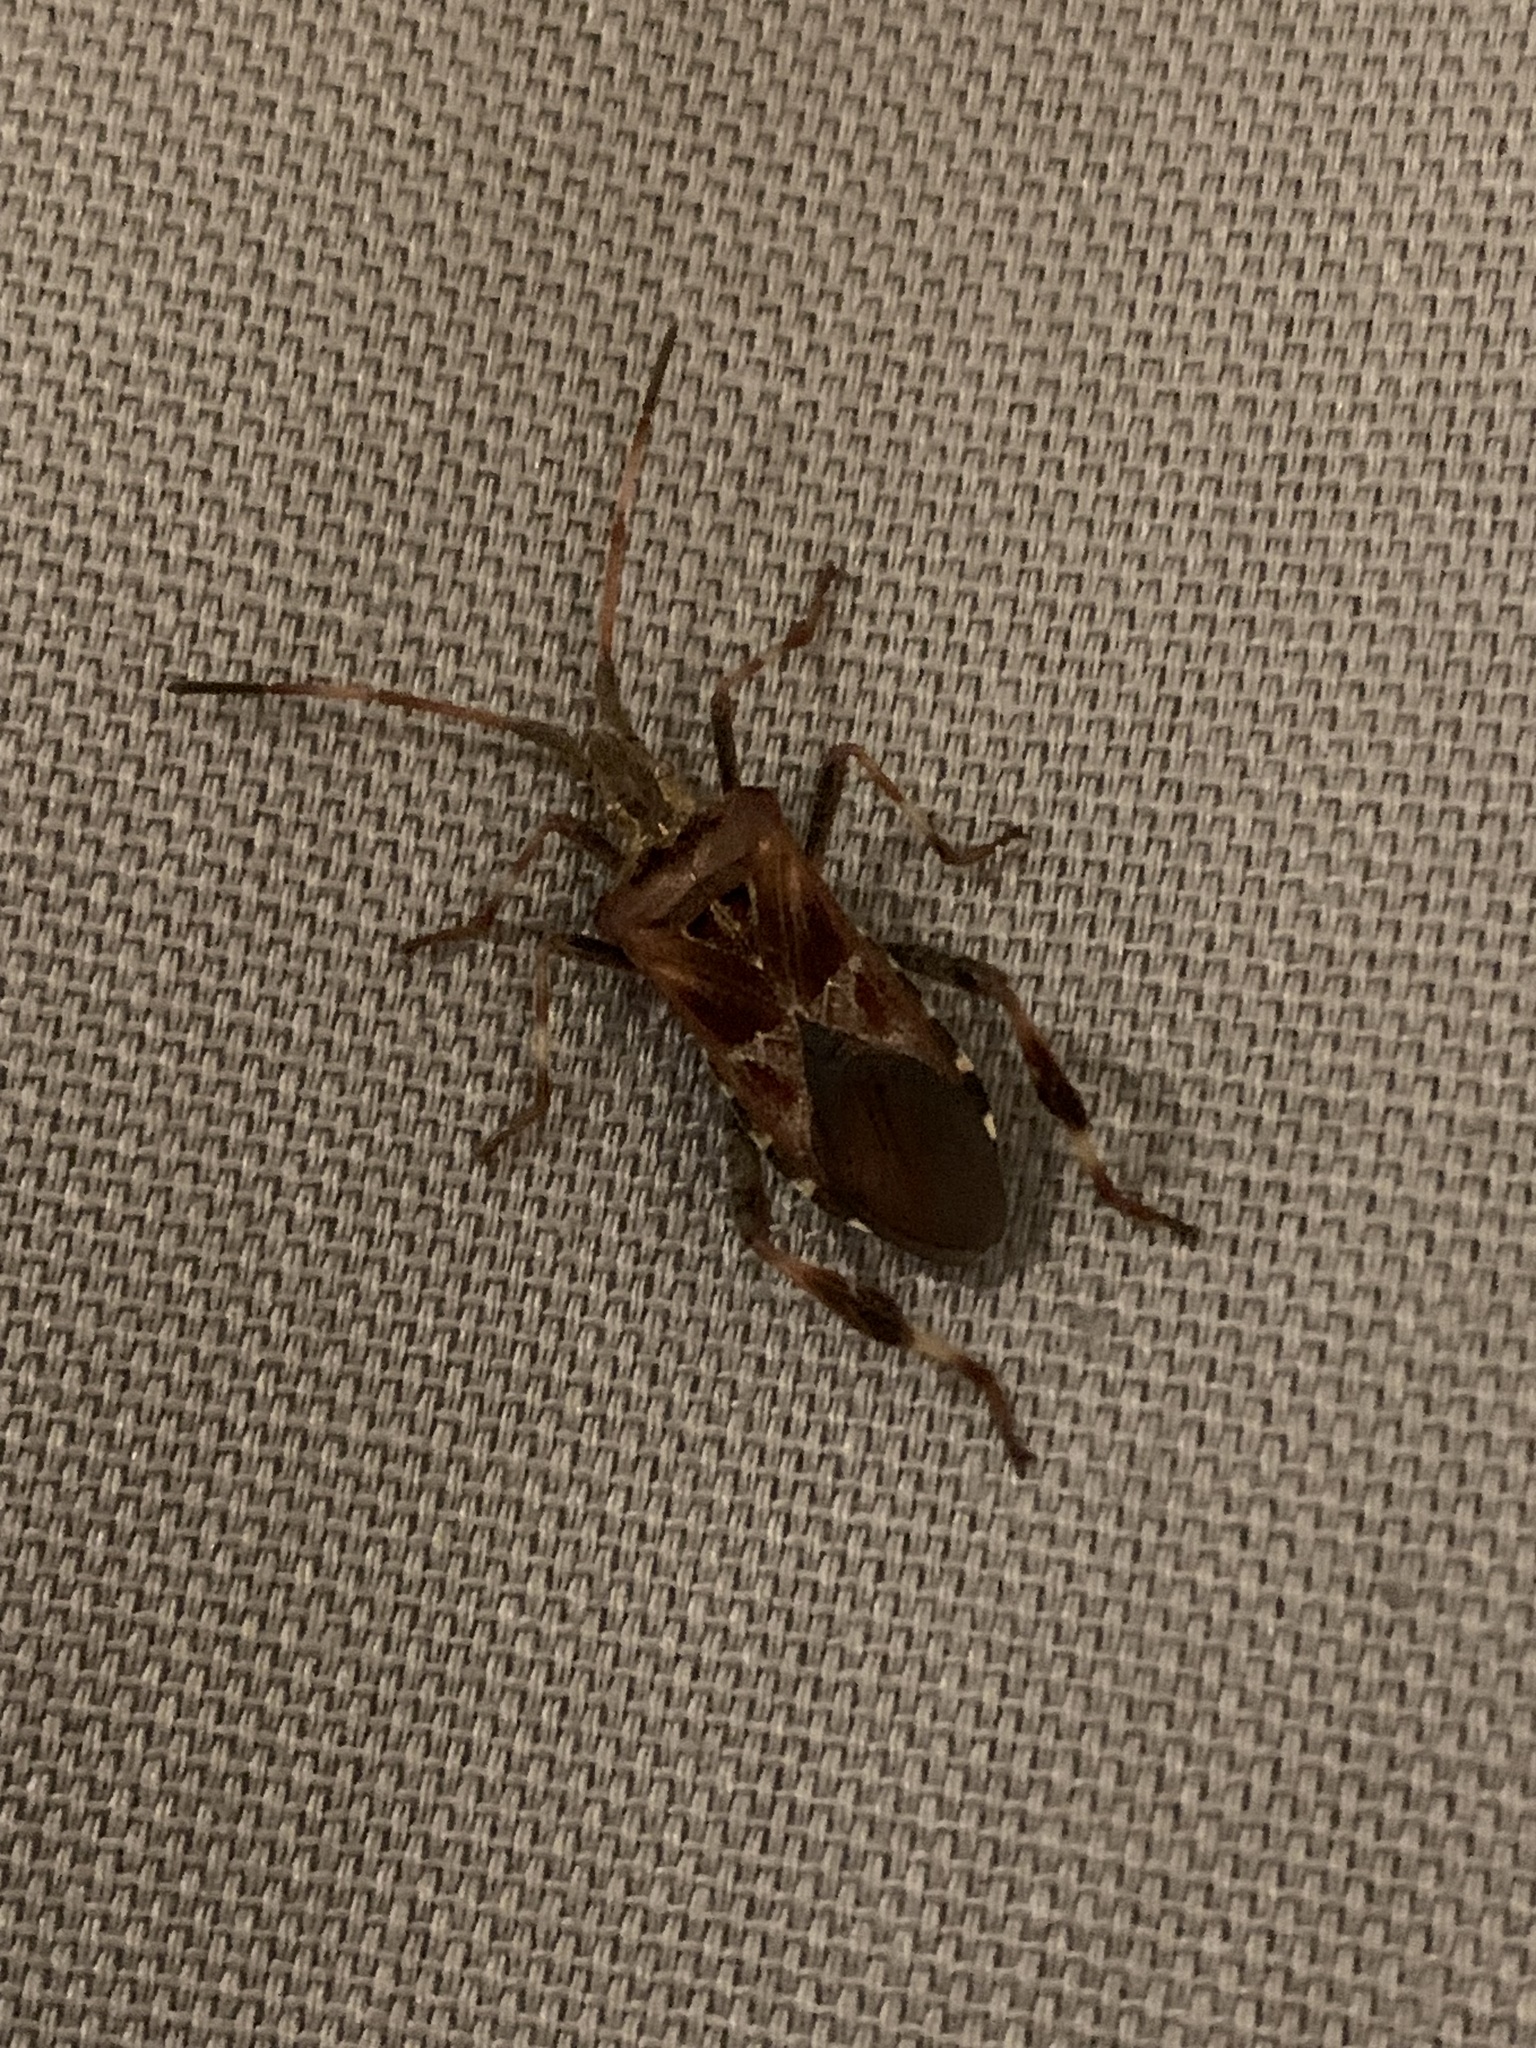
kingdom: Animalia
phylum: Arthropoda
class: Insecta
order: Hemiptera
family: Coreidae
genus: Leptoglossus
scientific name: Leptoglossus occidentalis
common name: Western conifer-seed bug
